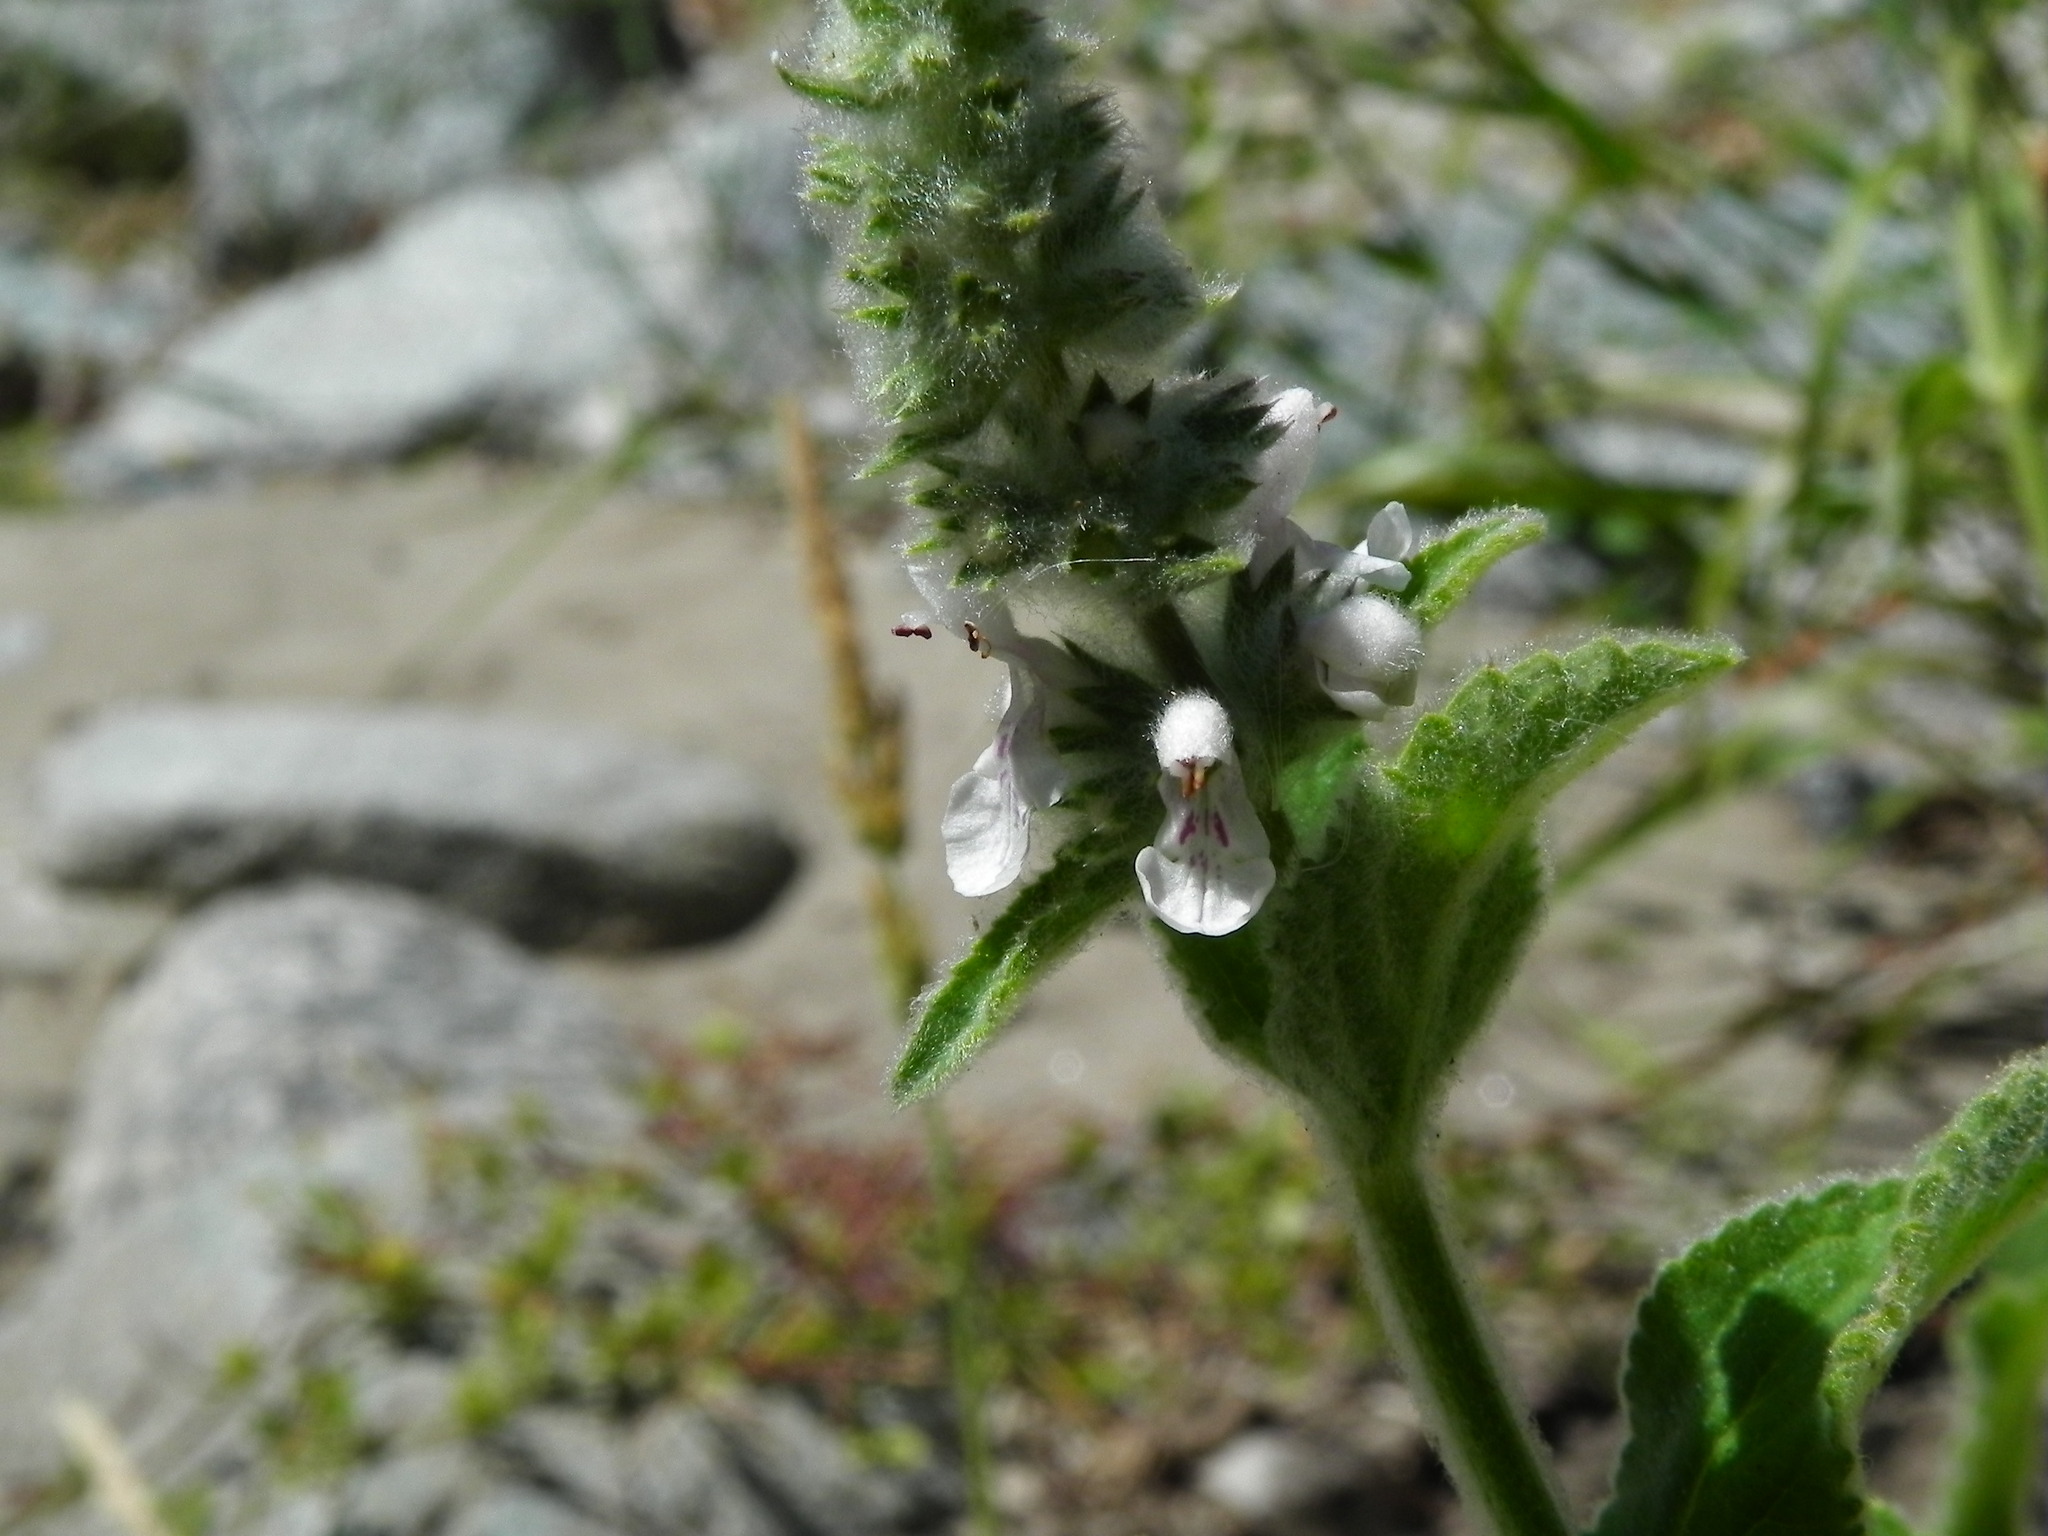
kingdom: Plantae
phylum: Tracheophyta
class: Magnoliopsida
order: Lamiales
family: Lamiaceae
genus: Stachys
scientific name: Stachys albens
